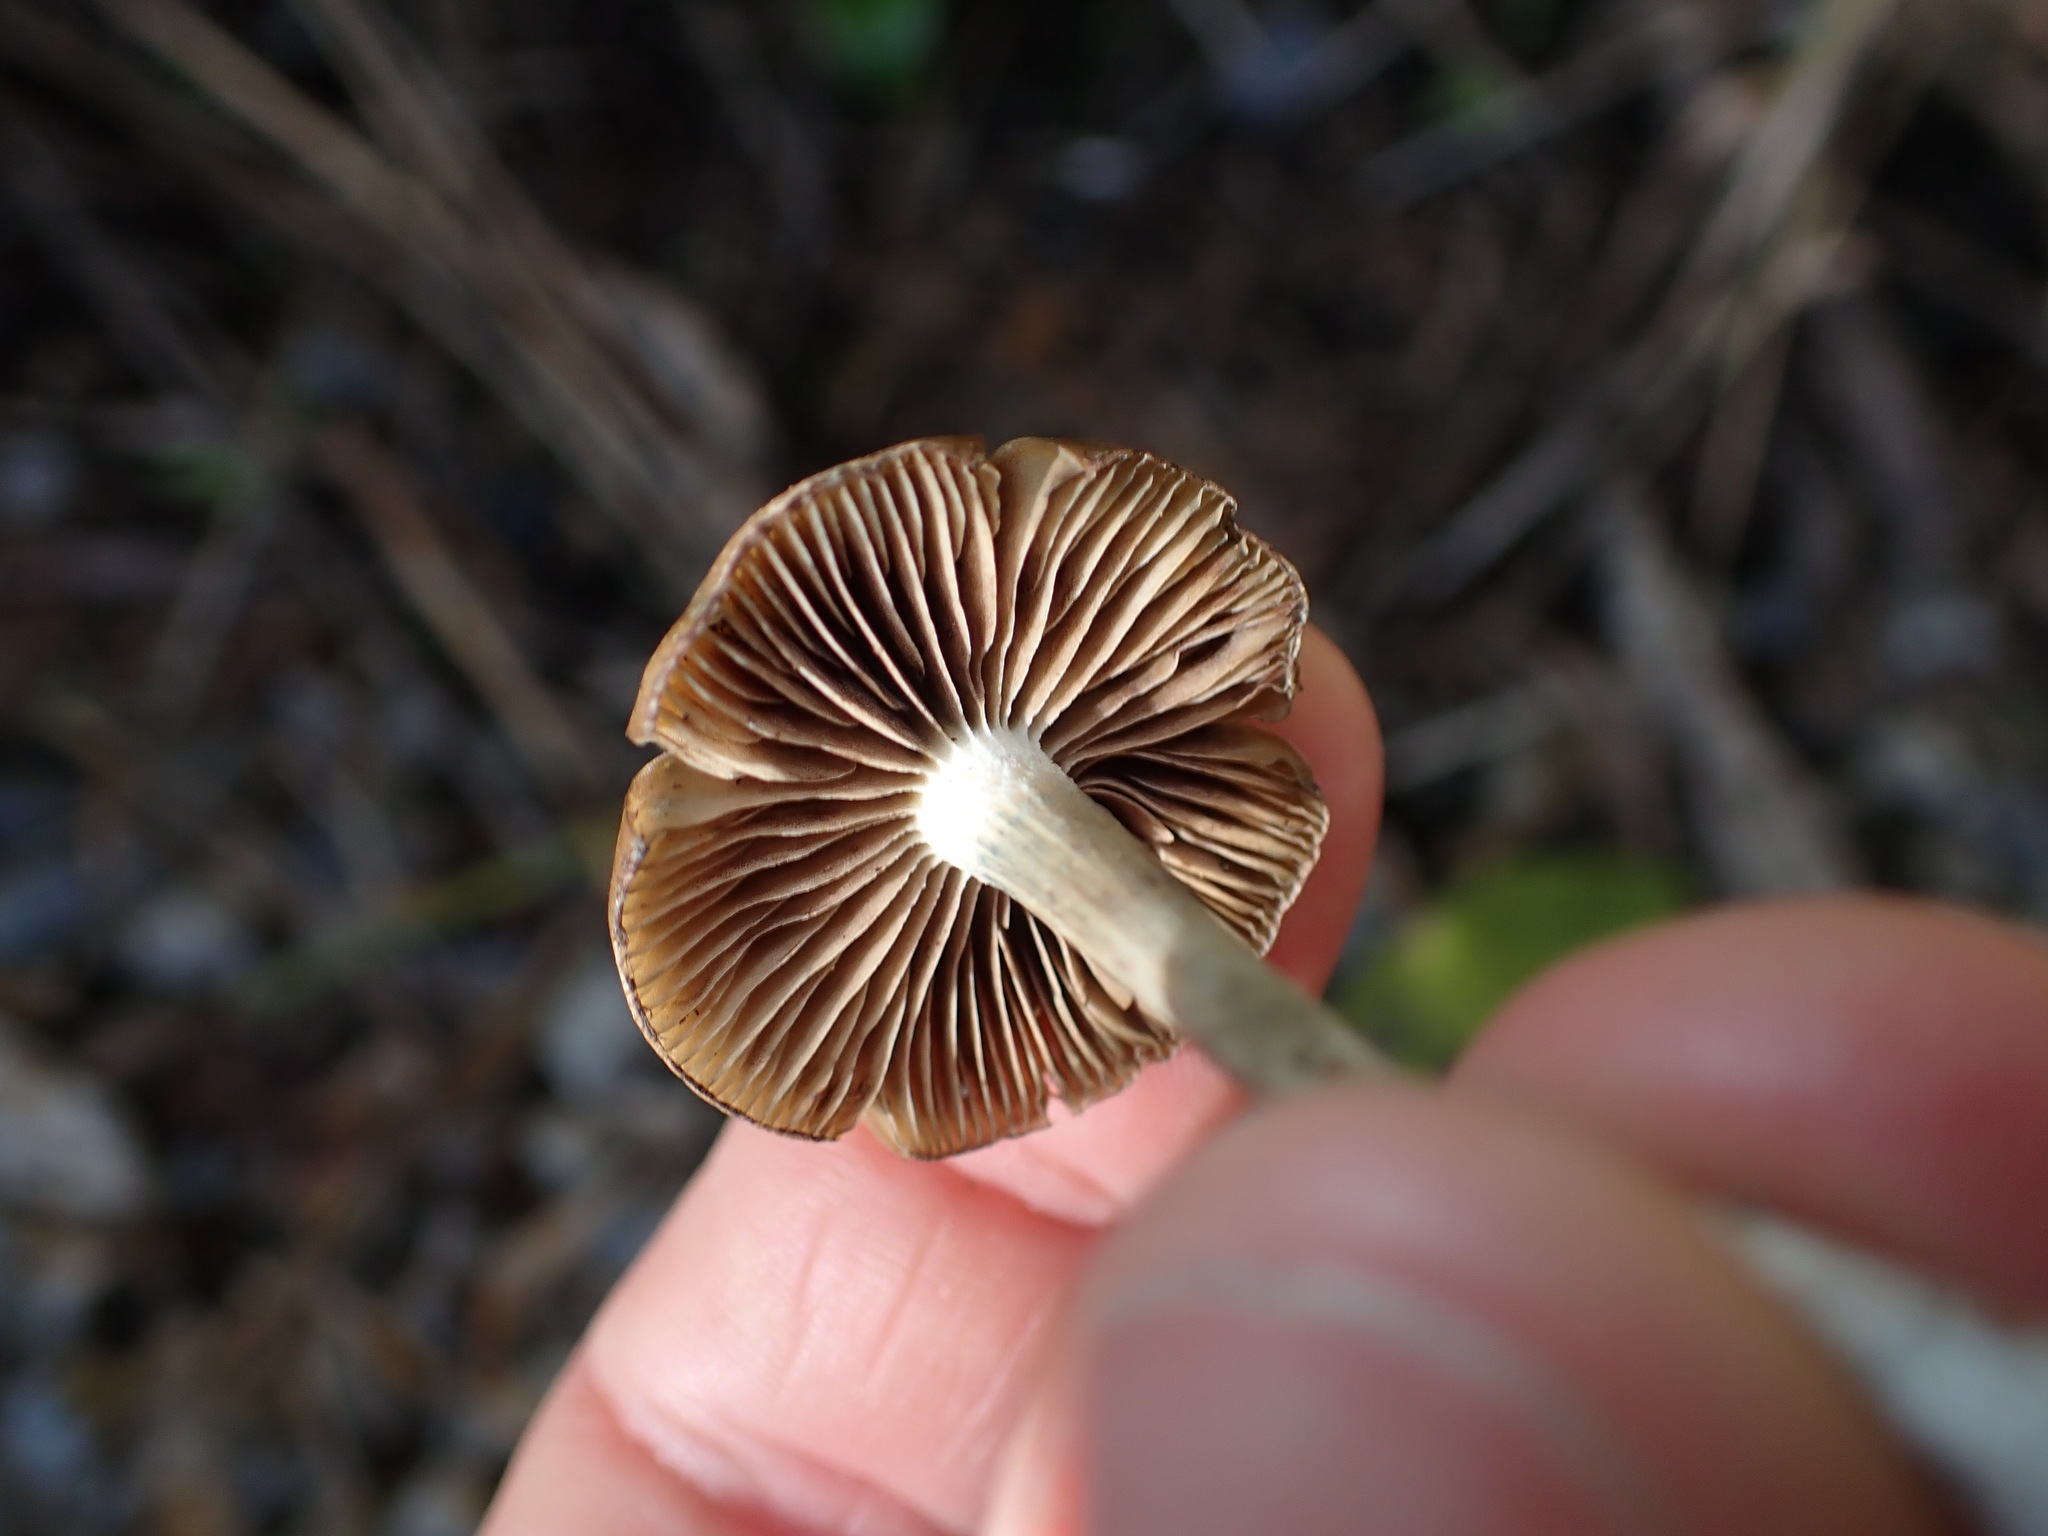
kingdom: Fungi
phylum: Basidiomycota
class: Agaricomycetes
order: Agaricales
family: Hymenogastraceae
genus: Psilocybe
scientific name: Psilocybe subaeruginosa
